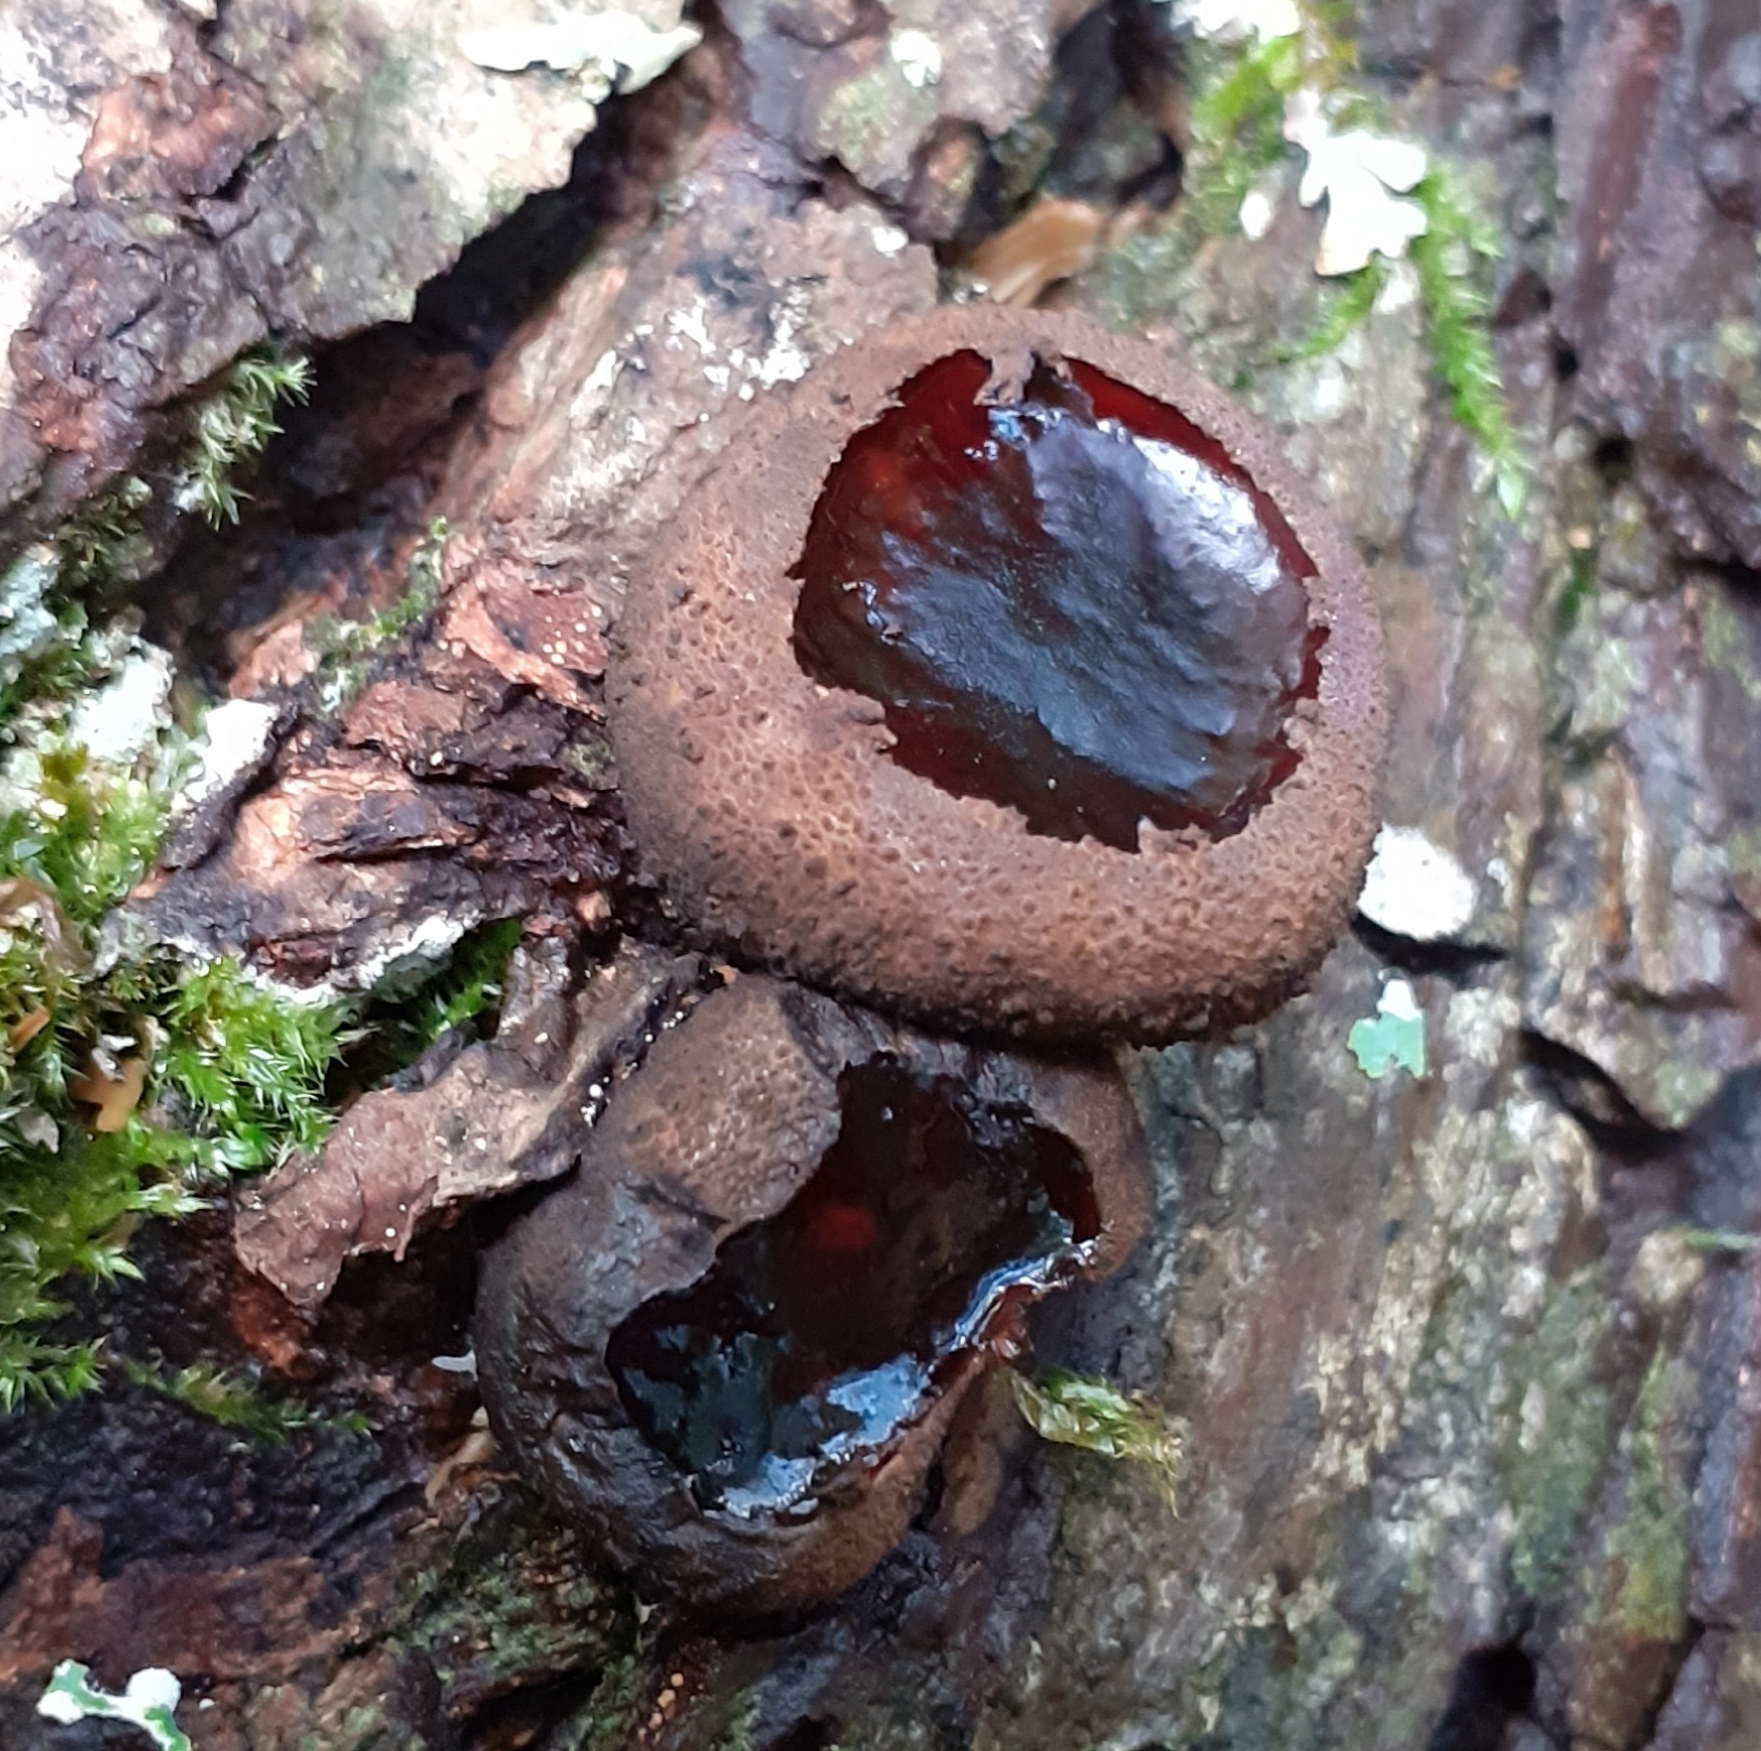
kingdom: Fungi
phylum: Ascomycota
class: Leotiomycetes
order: Phacidiales
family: Phacidiaceae
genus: Bulgaria
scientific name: Bulgaria inquinans
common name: Black bulgar
